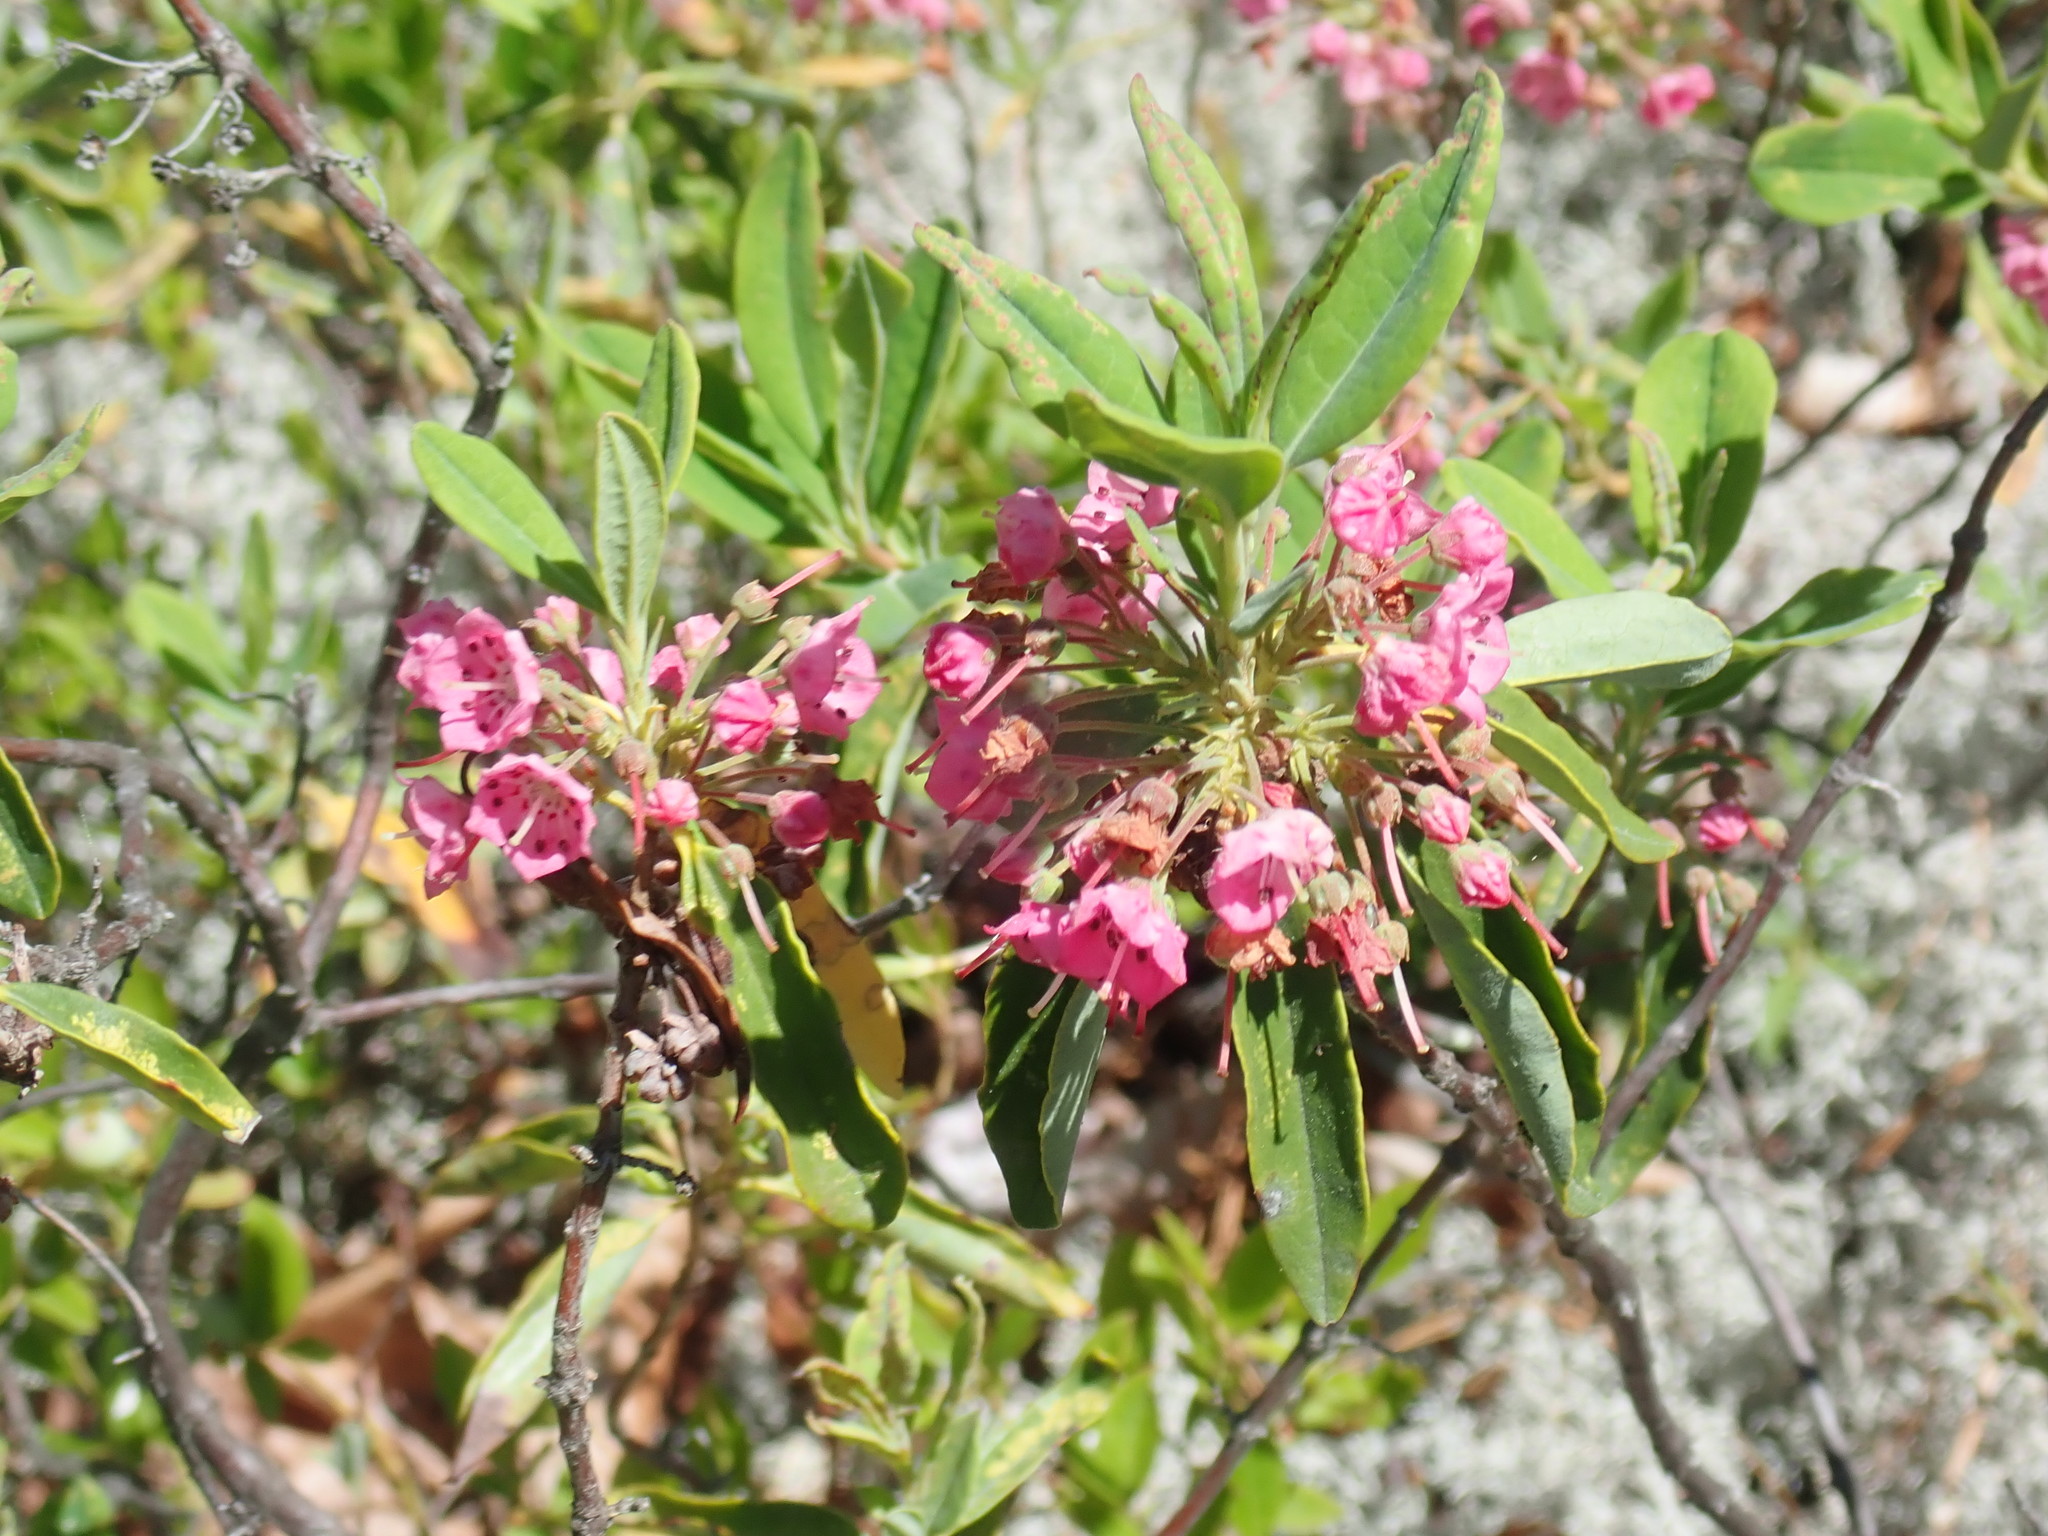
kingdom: Plantae
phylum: Tracheophyta
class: Magnoliopsida
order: Ericales
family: Ericaceae
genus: Kalmia
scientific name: Kalmia angustifolia
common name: Sheep-laurel
